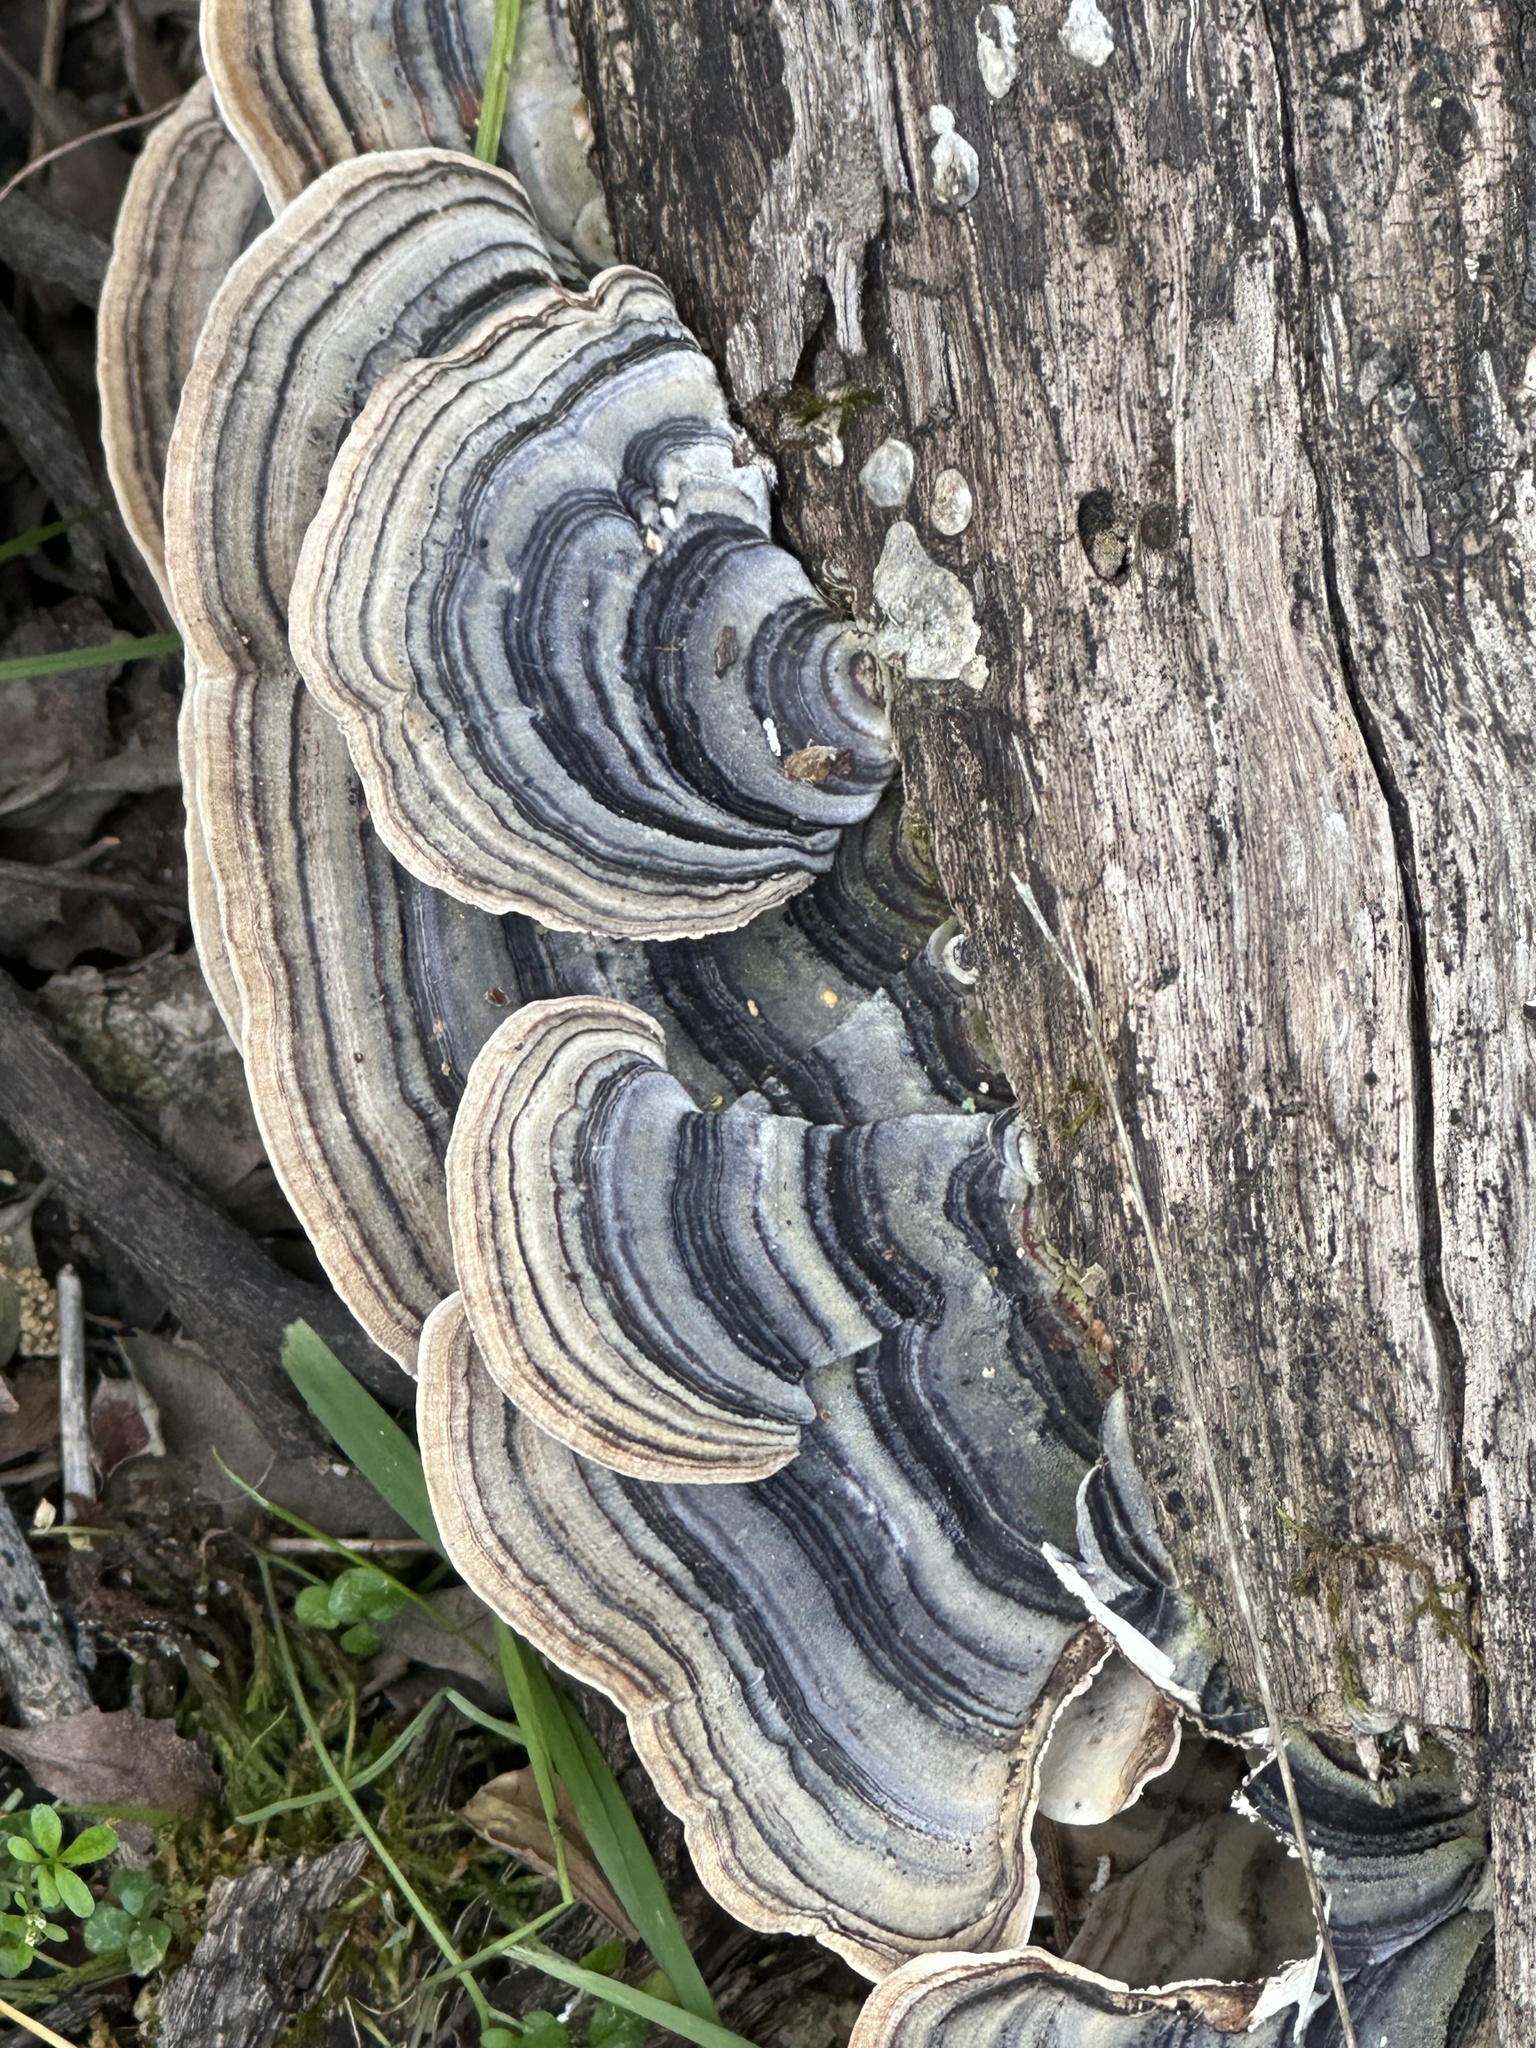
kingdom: Fungi
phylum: Basidiomycota
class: Agaricomycetes
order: Polyporales
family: Polyporaceae
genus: Trametes
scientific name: Trametes versicolor
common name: Turkeytail
